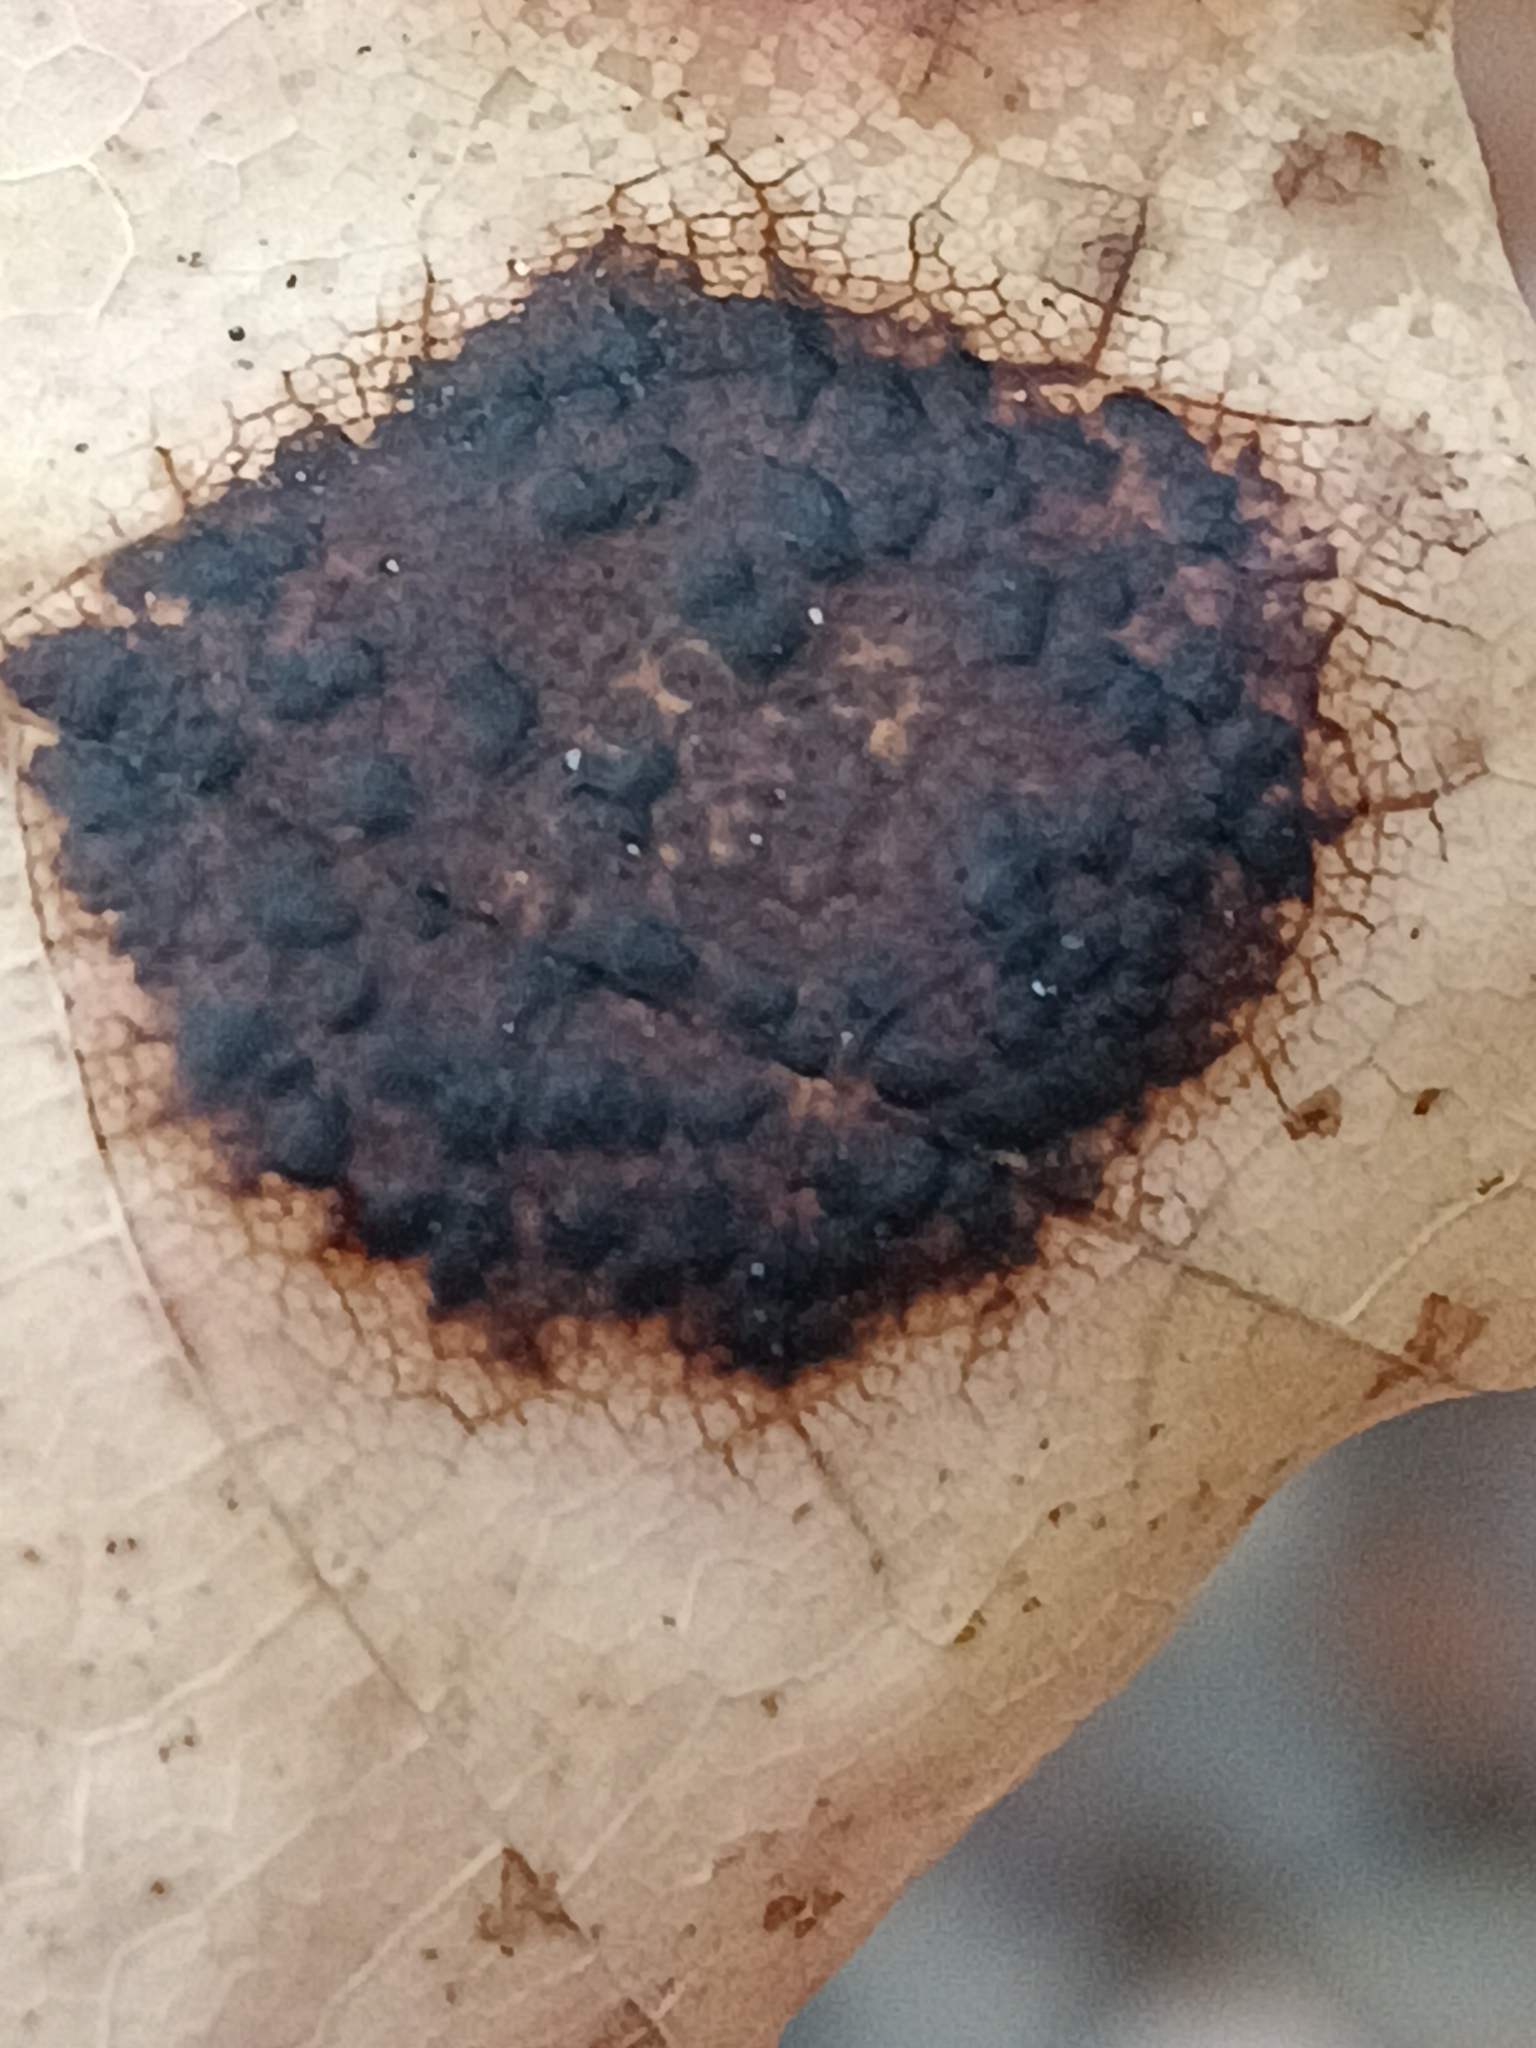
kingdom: Fungi
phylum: Ascomycota
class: Leotiomycetes
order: Rhytismatales
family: Rhytismataceae
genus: Rhytisma
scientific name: Rhytisma acerinum
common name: European tar spot
